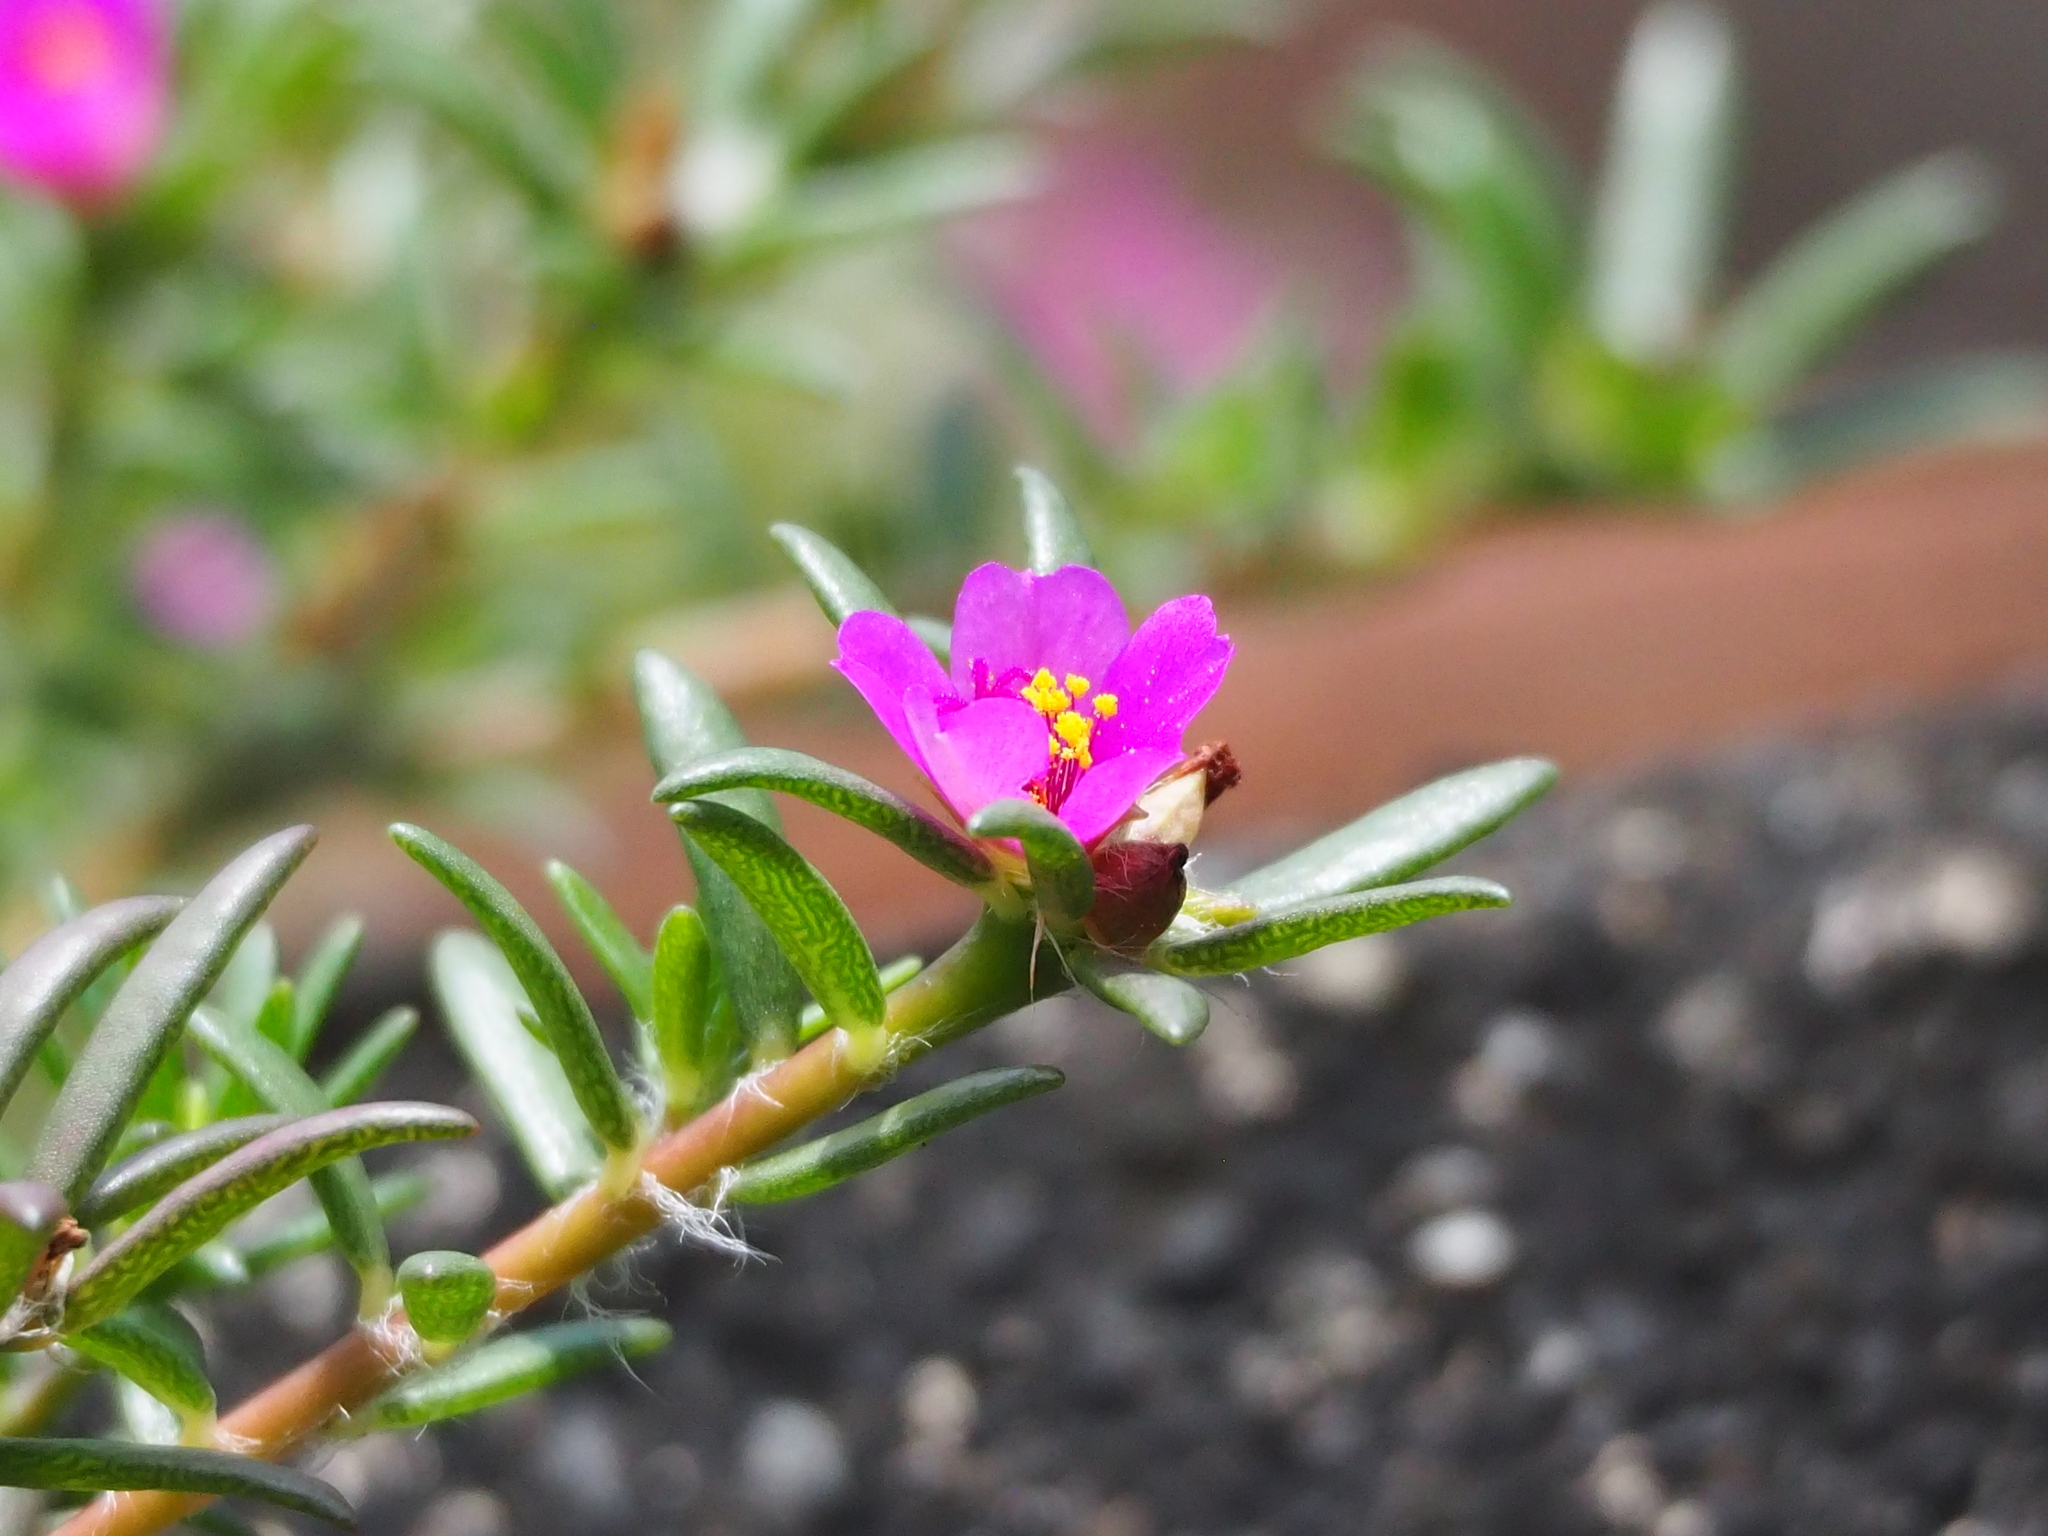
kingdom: Plantae
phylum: Tracheophyta
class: Magnoliopsida
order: Caryophyllales
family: Portulacaceae
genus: Portulaca
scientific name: Portulaca pilosa
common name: Kiss me quick
